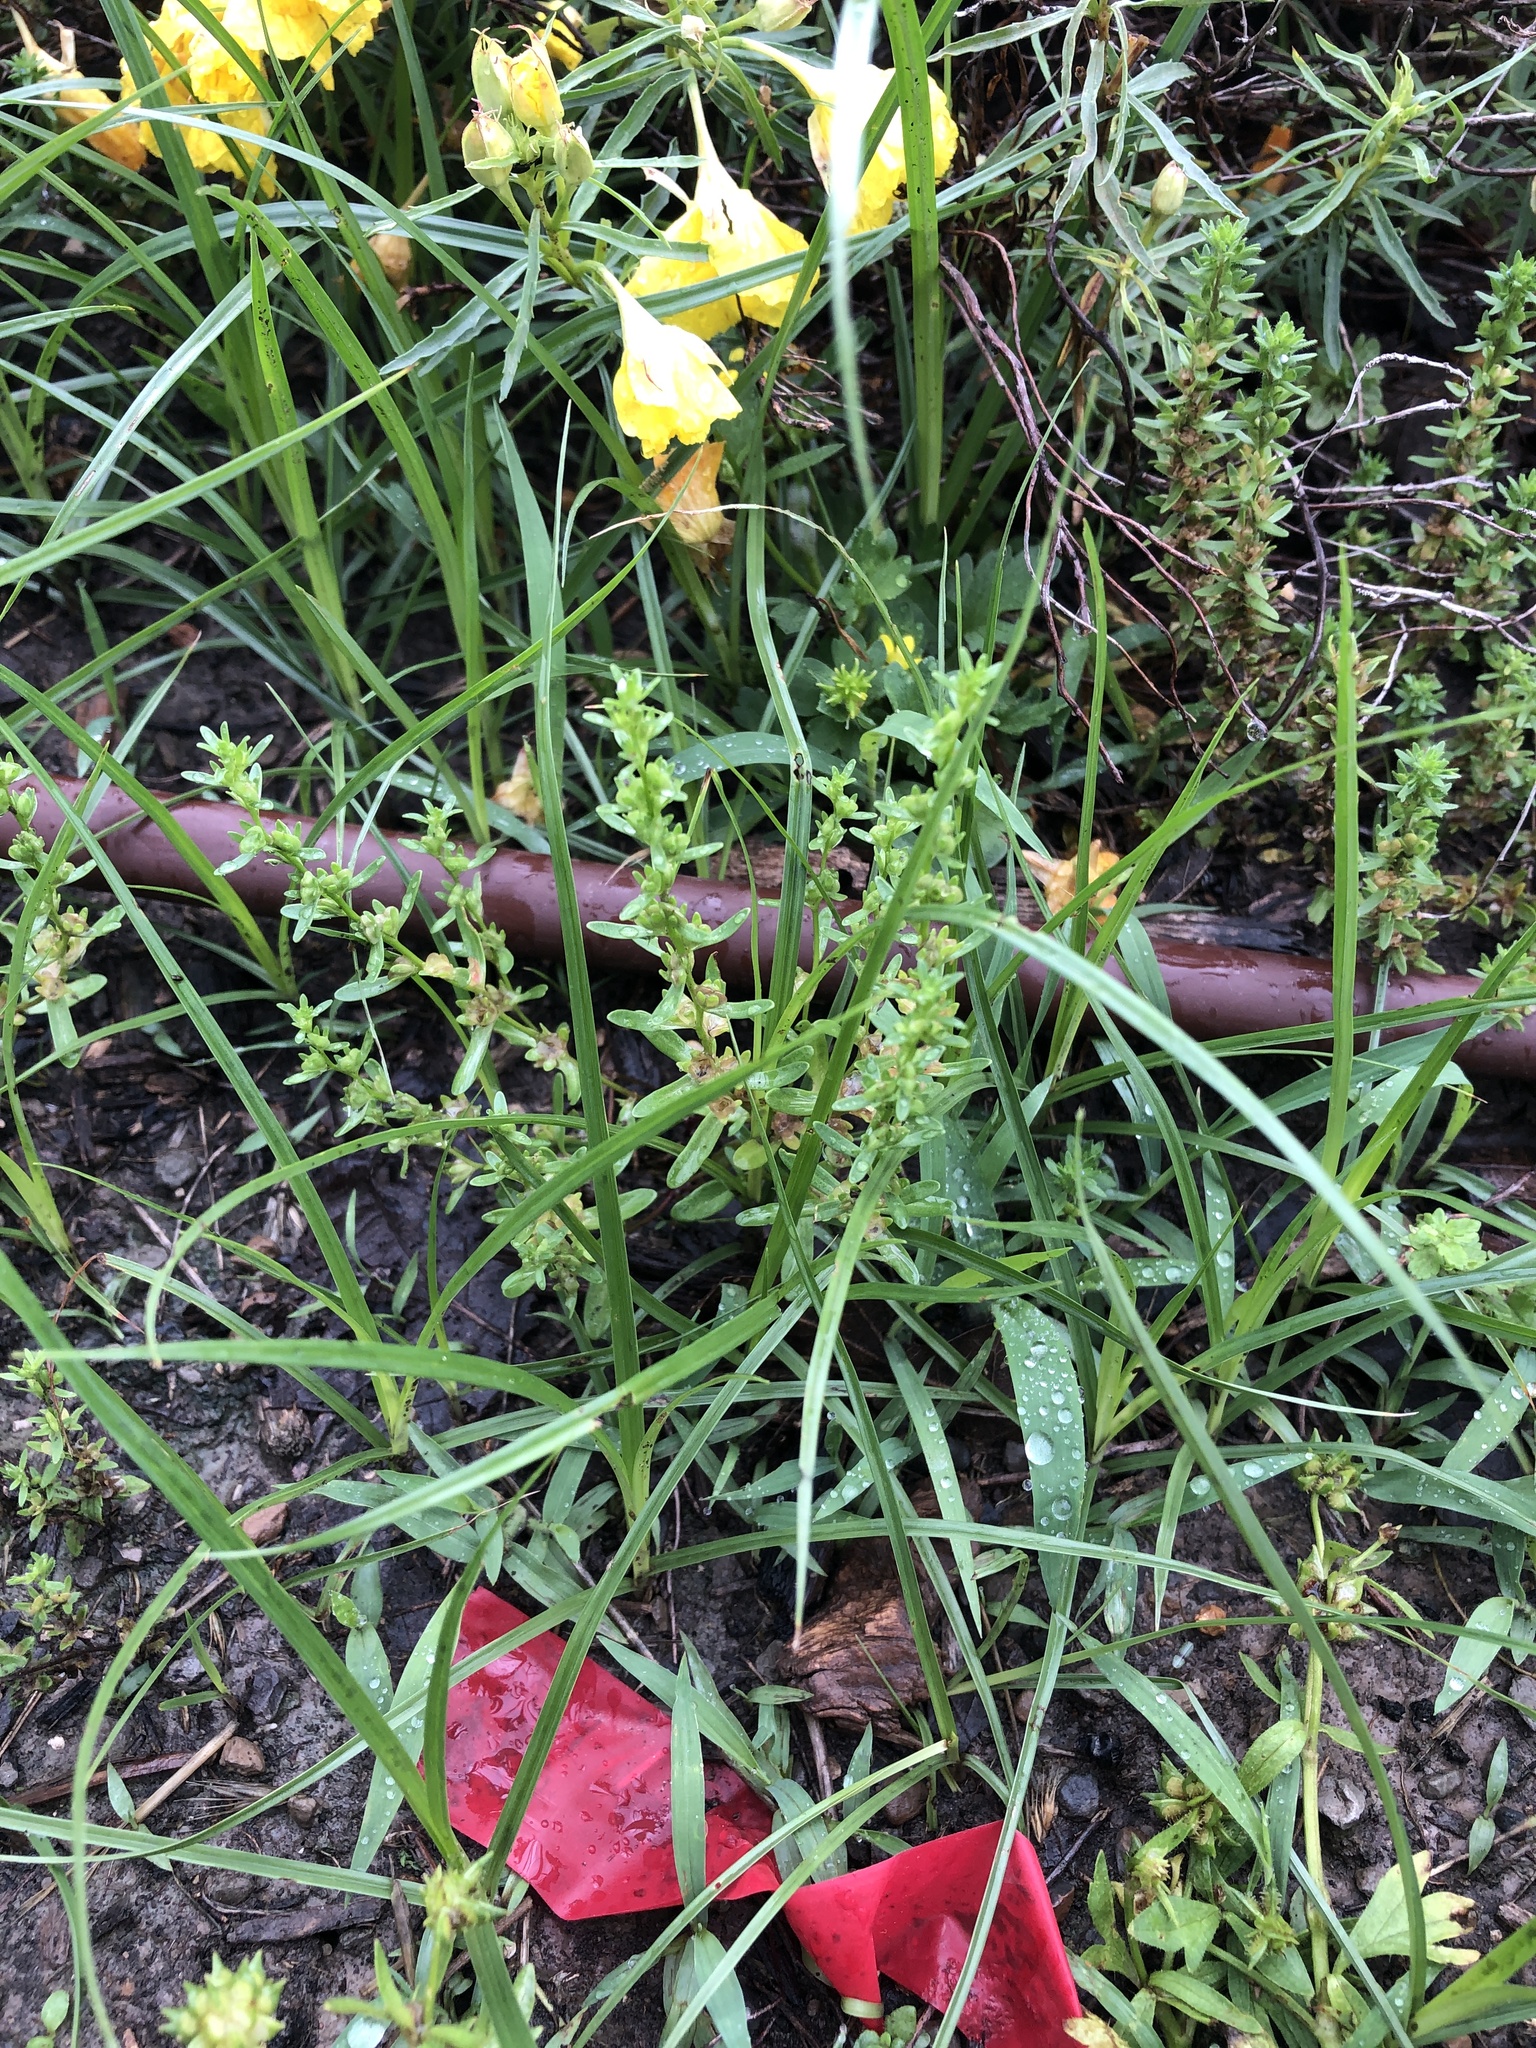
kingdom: Plantae
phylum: Tracheophyta
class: Magnoliopsida
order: Lamiales
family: Plantaginaceae
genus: Veronica
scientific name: Veronica peregrina
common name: Neckweed
